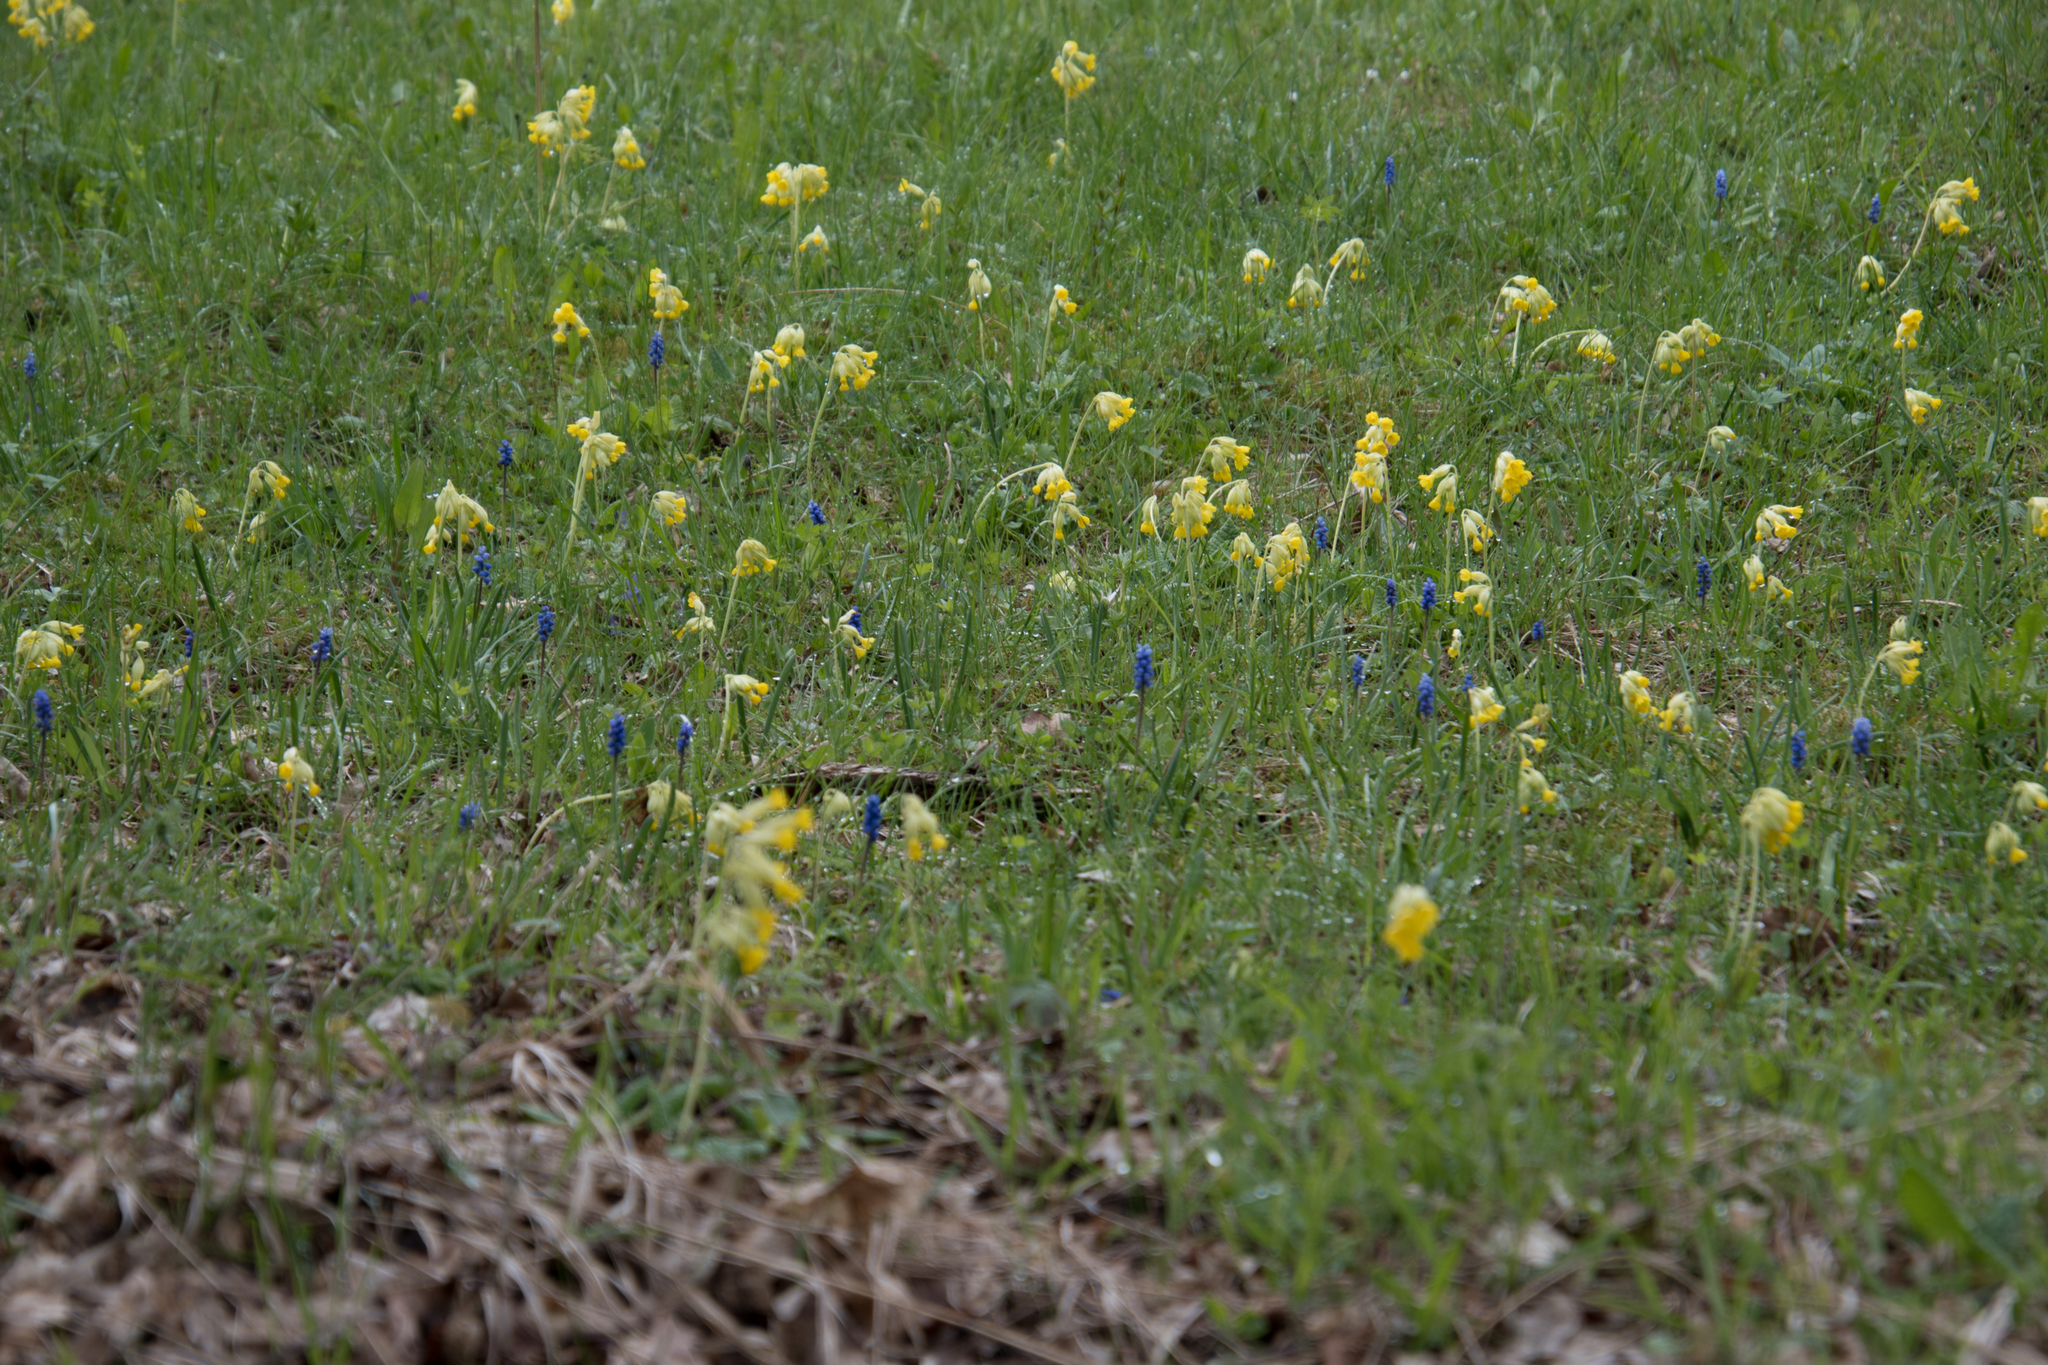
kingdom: Plantae
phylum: Tracheophyta
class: Liliopsida
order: Asparagales
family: Asparagaceae
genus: Muscari
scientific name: Muscari botryoides
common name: Compact grape-hyacinth
